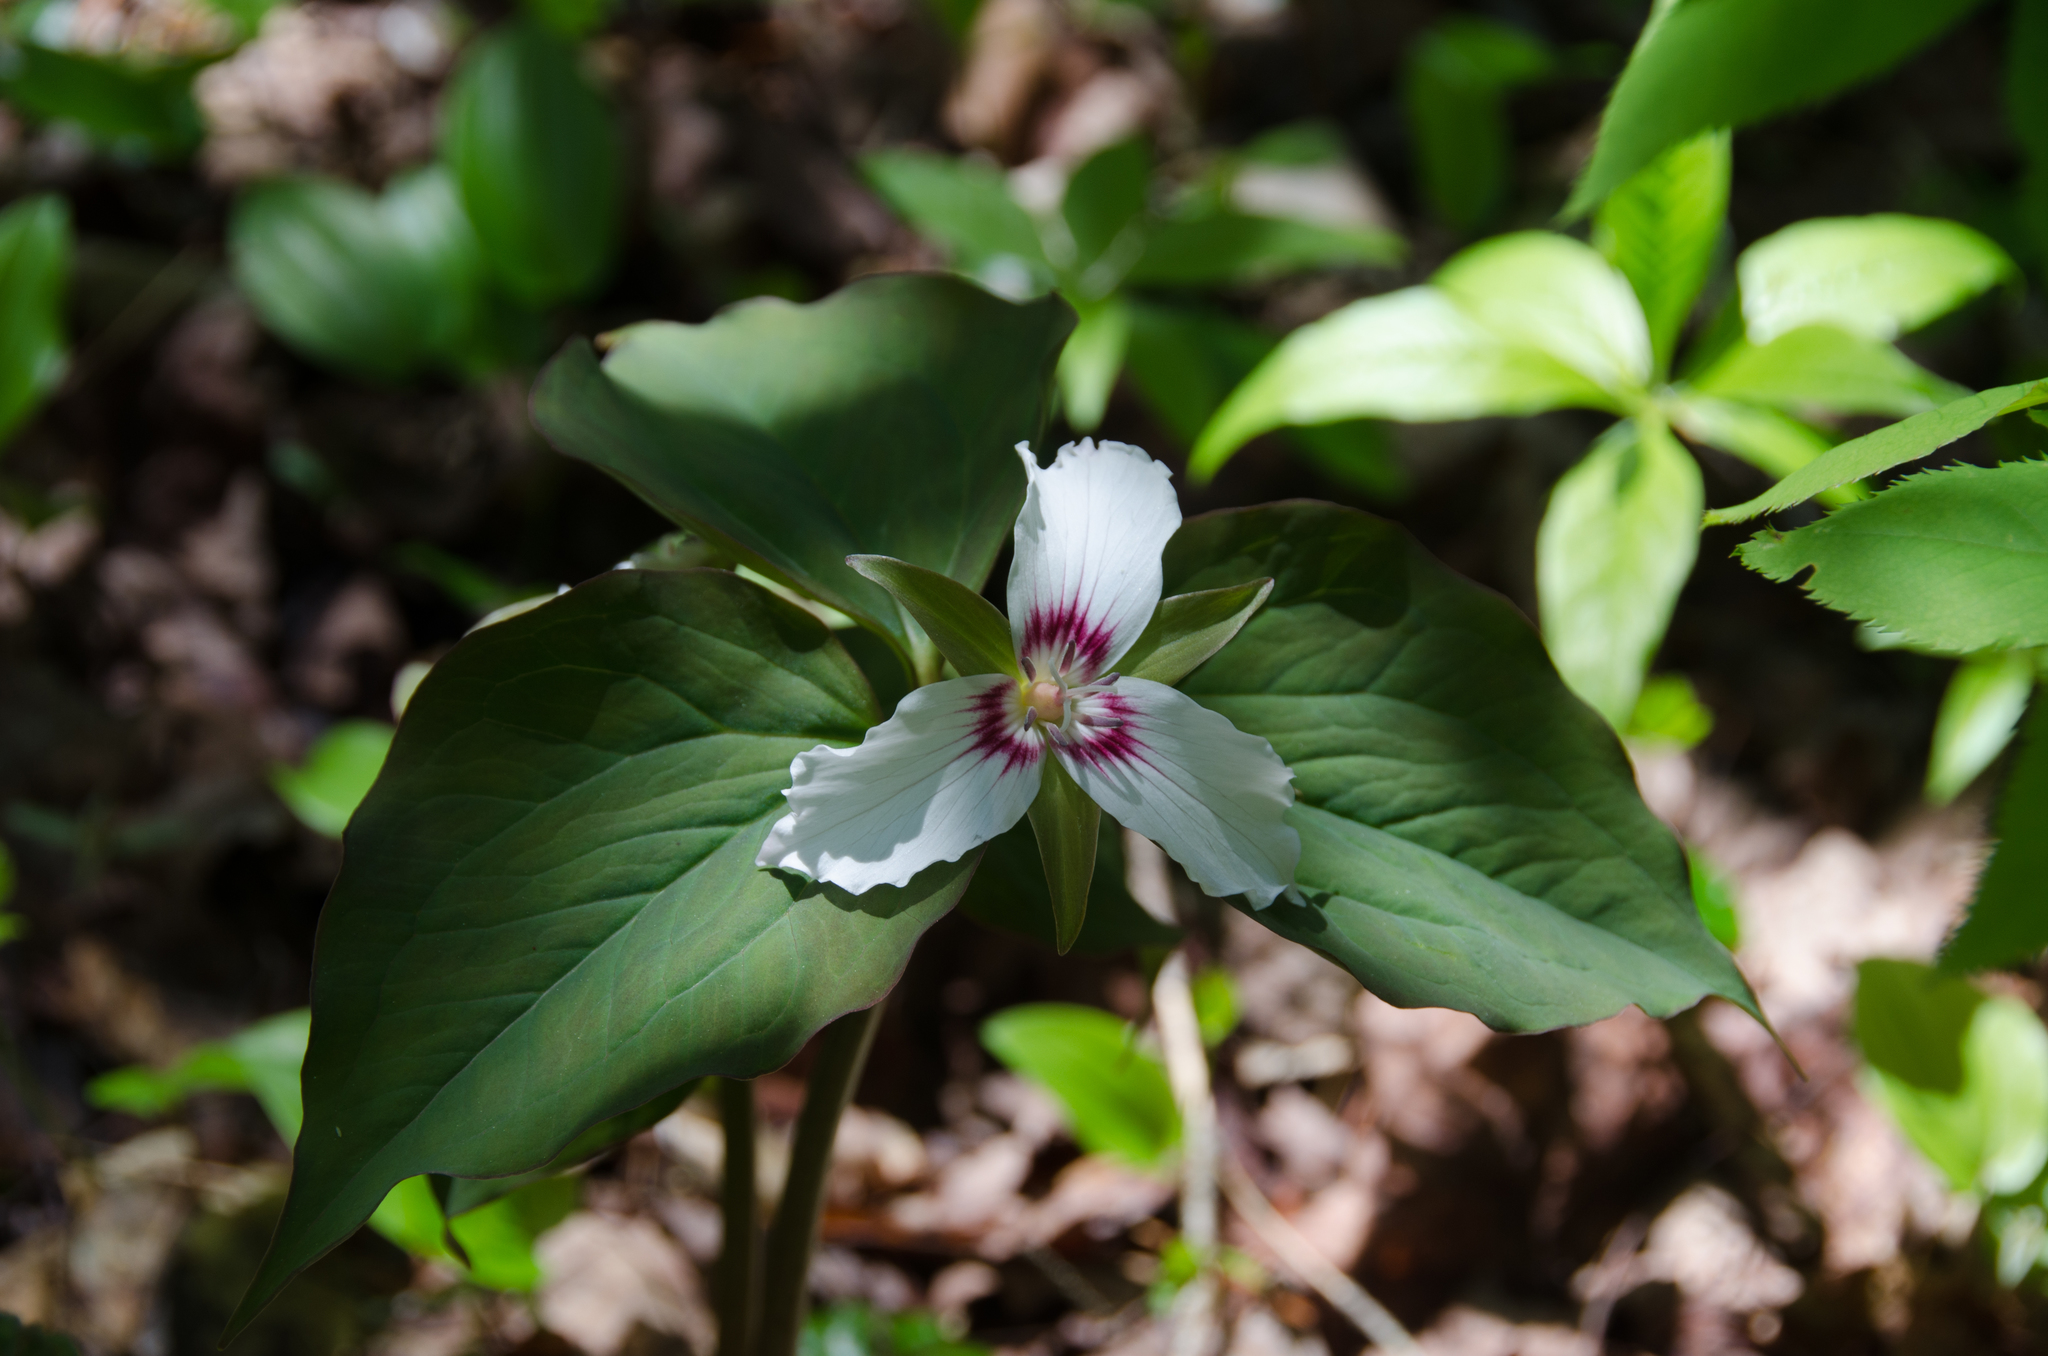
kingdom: Plantae
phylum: Tracheophyta
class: Liliopsida
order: Liliales
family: Melanthiaceae
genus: Trillium
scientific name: Trillium undulatum
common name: Paint trillium
